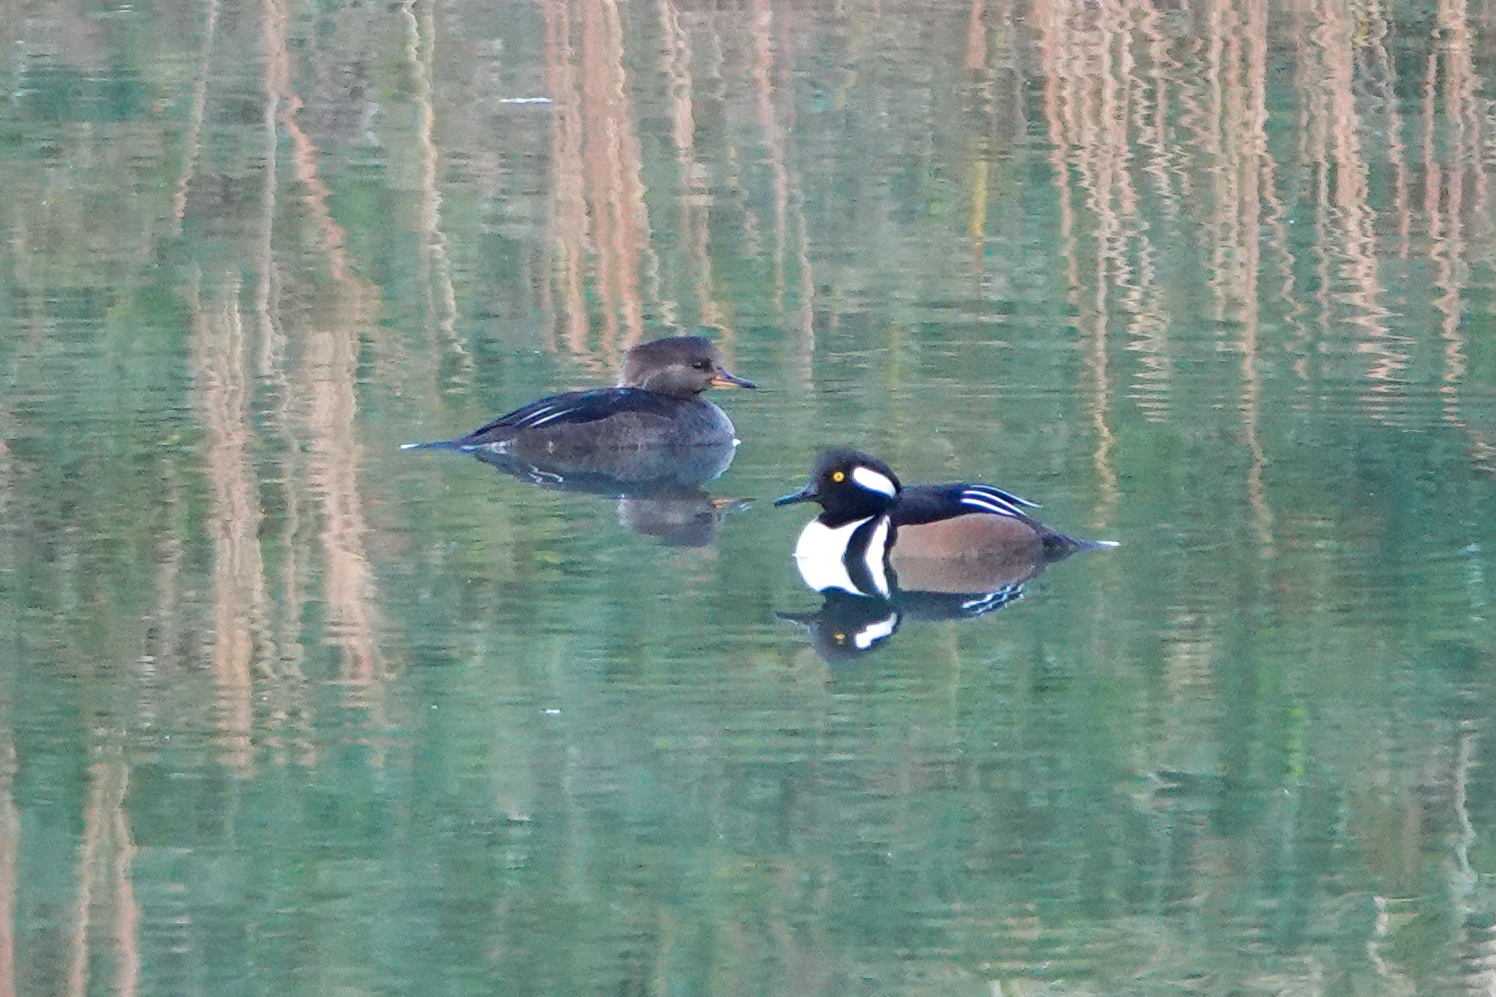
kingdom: Animalia
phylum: Chordata
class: Aves
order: Anseriformes
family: Anatidae
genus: Lophodytes
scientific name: Lophodytes cucullatus
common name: Hooded merganser
